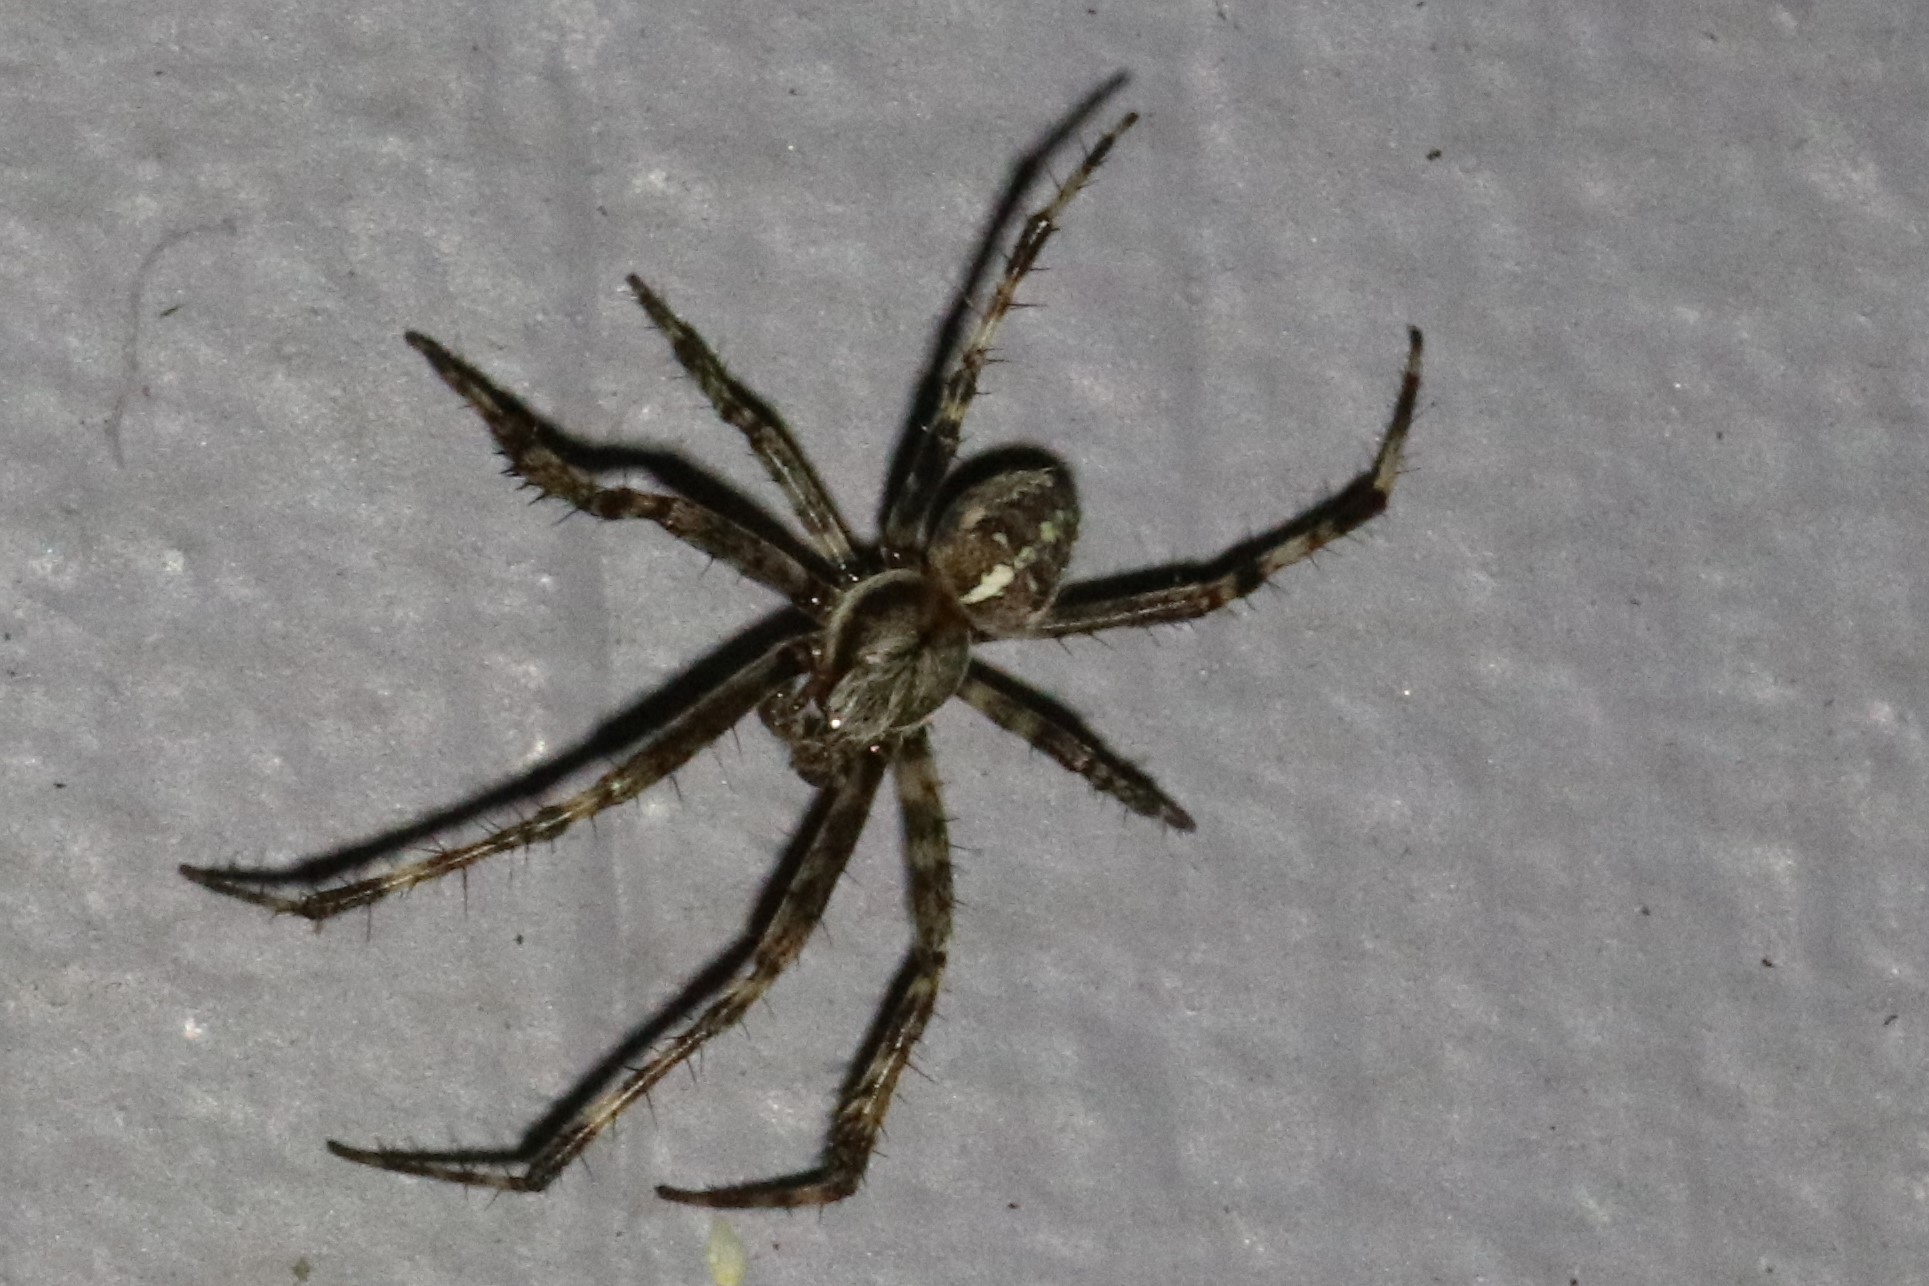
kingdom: Animalia
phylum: Arthropoda
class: Arachnida
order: Araneae
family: Araneidae
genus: Araneus
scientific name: Araneus diadematus
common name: Cross orbweaver
